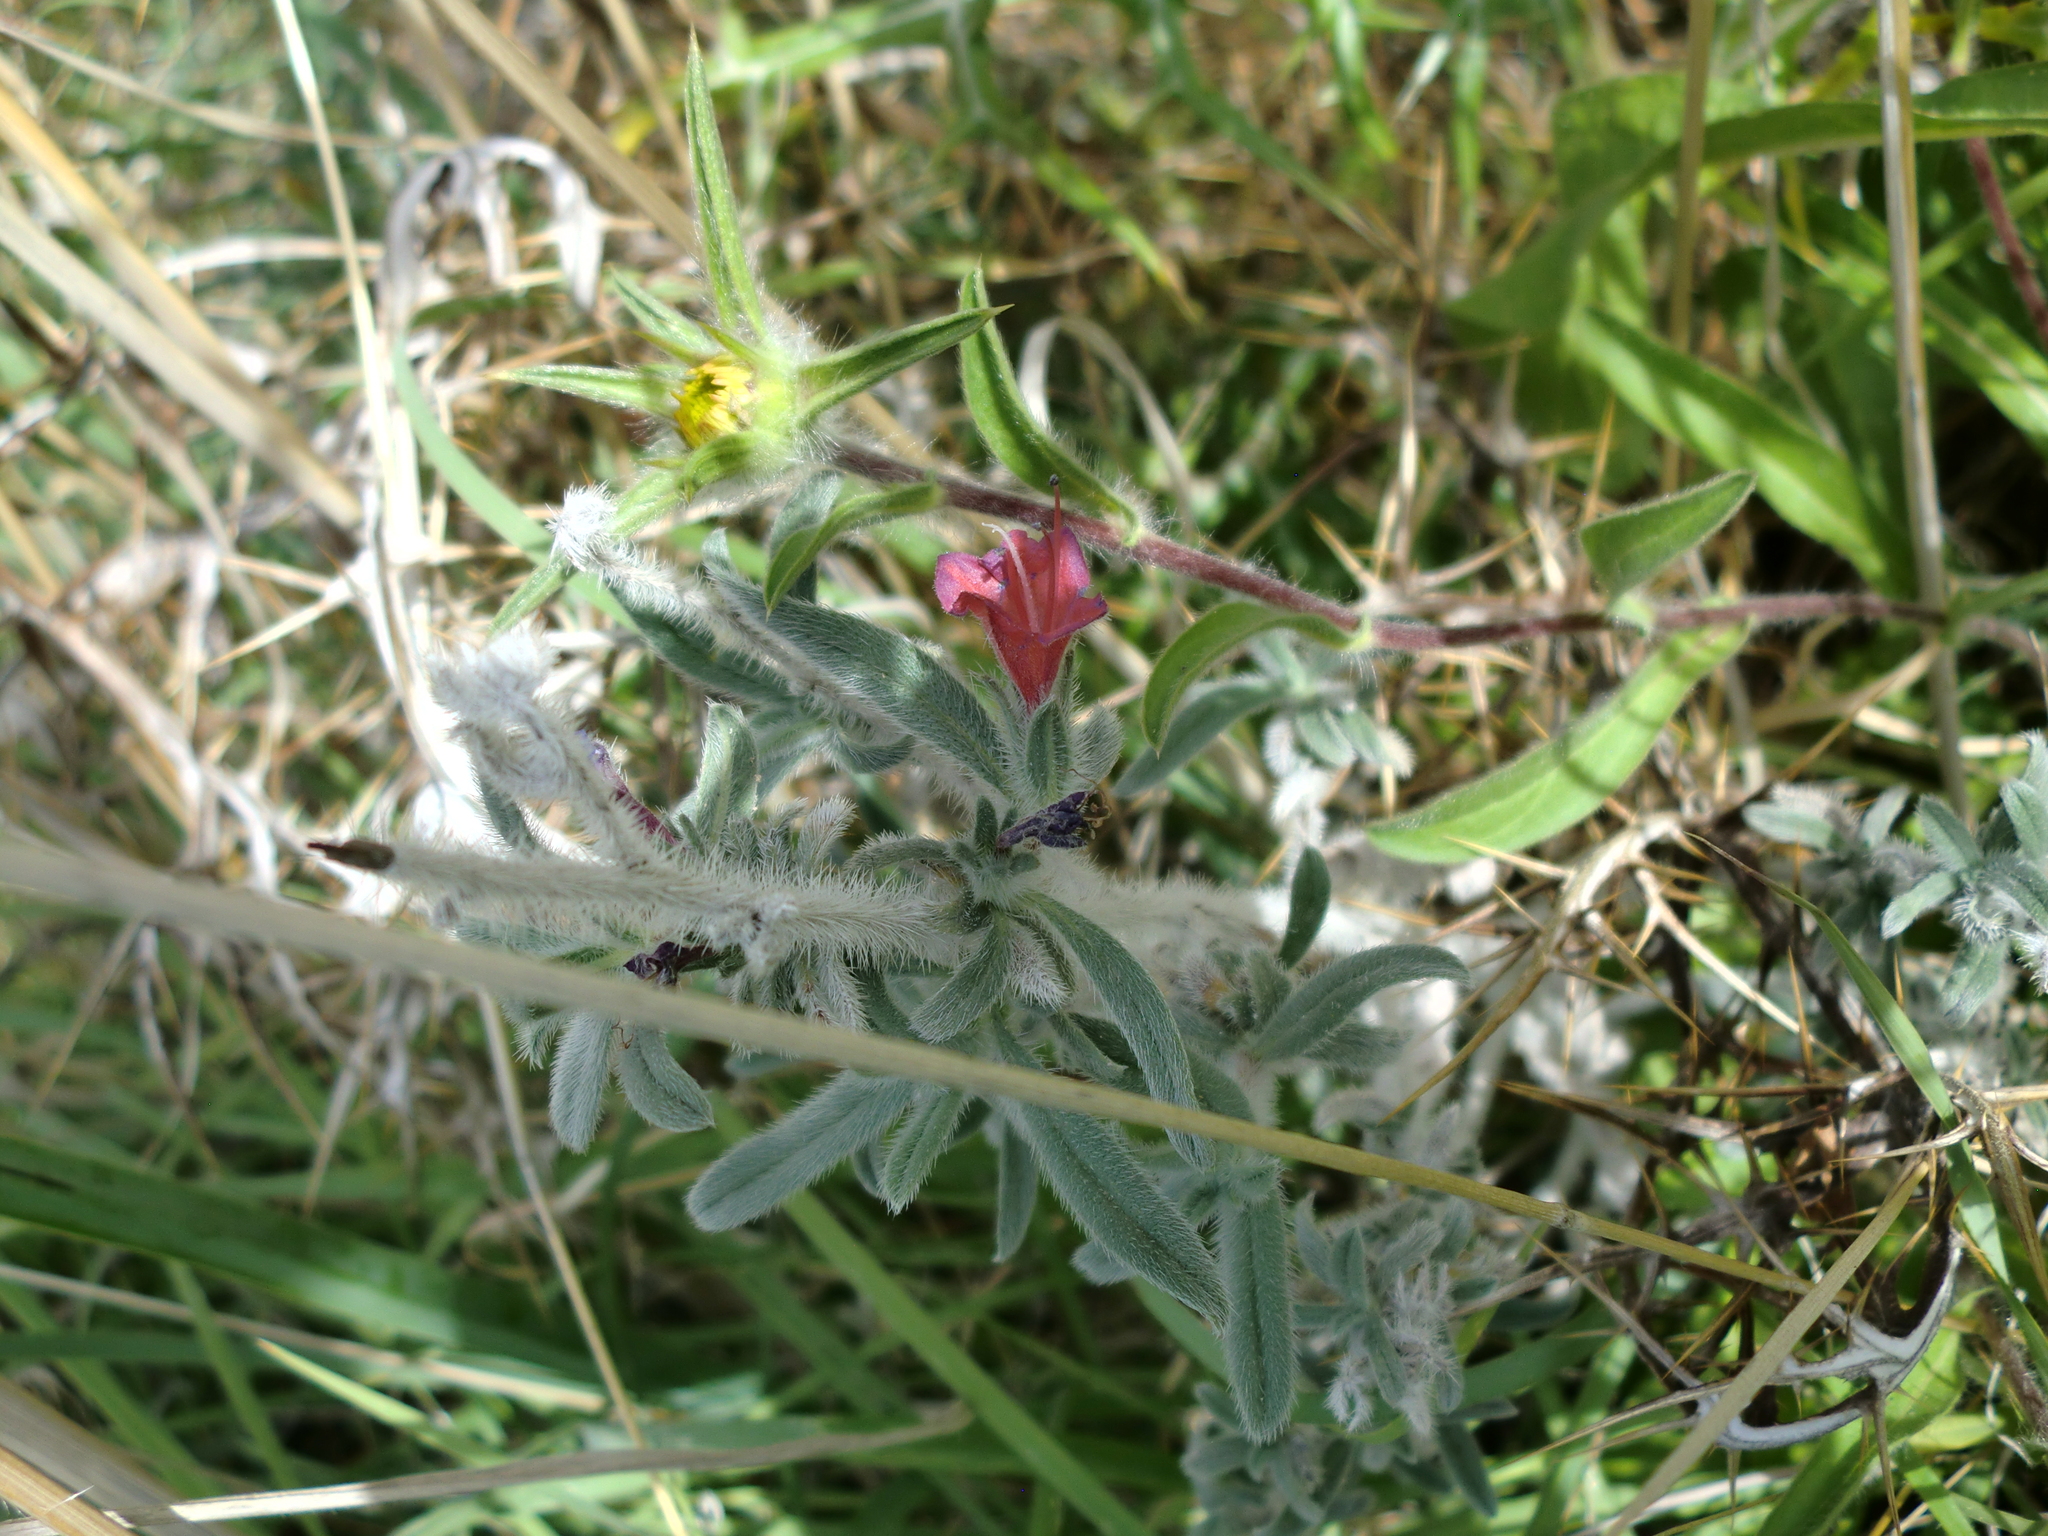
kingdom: Plantae
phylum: Tracheophyta
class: Magnoliopsida
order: Boraginales
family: Boraginaceae
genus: Echium
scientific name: Echium angustifolium
